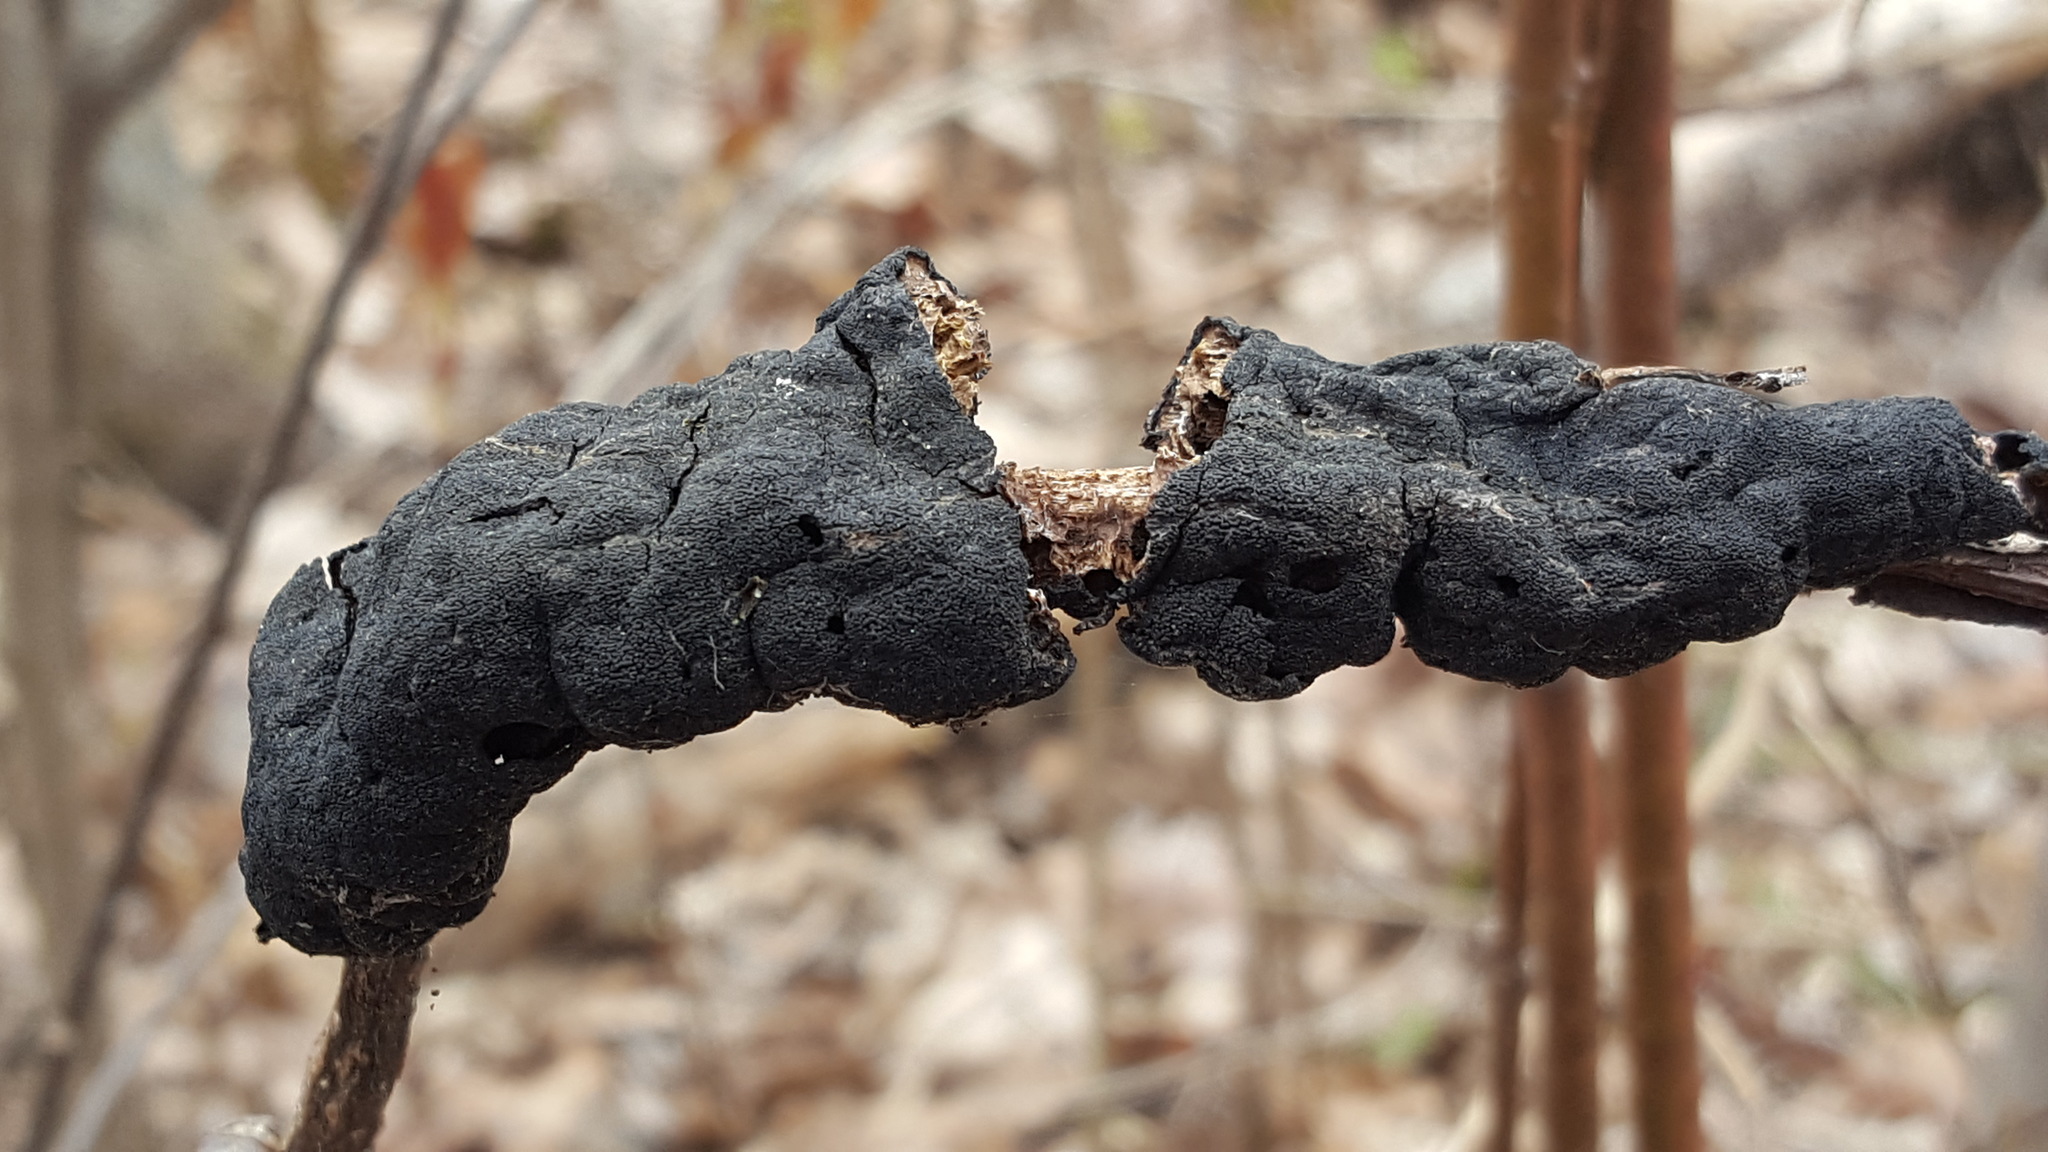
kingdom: Fungi
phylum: Ascomycota
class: Dothideomycetes
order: Venturiales
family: Venturiaceae
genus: Apiosporina
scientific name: Apiosporina morbosa
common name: Black knot
